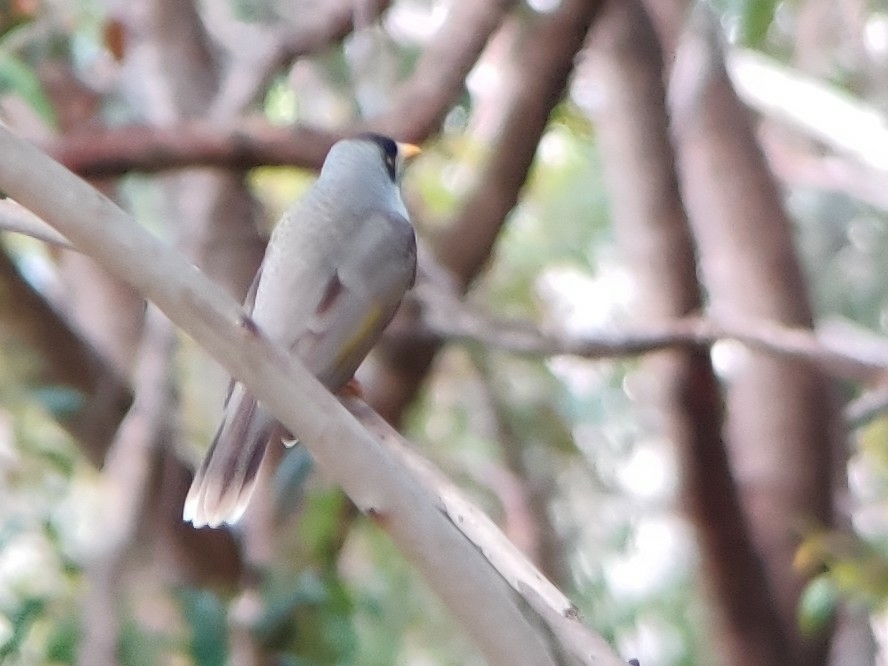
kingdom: Animalia
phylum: Chordata
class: Aves
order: Passeriformes
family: Meliphagidae
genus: Manorina
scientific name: Manorina melanocephala
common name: Noisy miner
